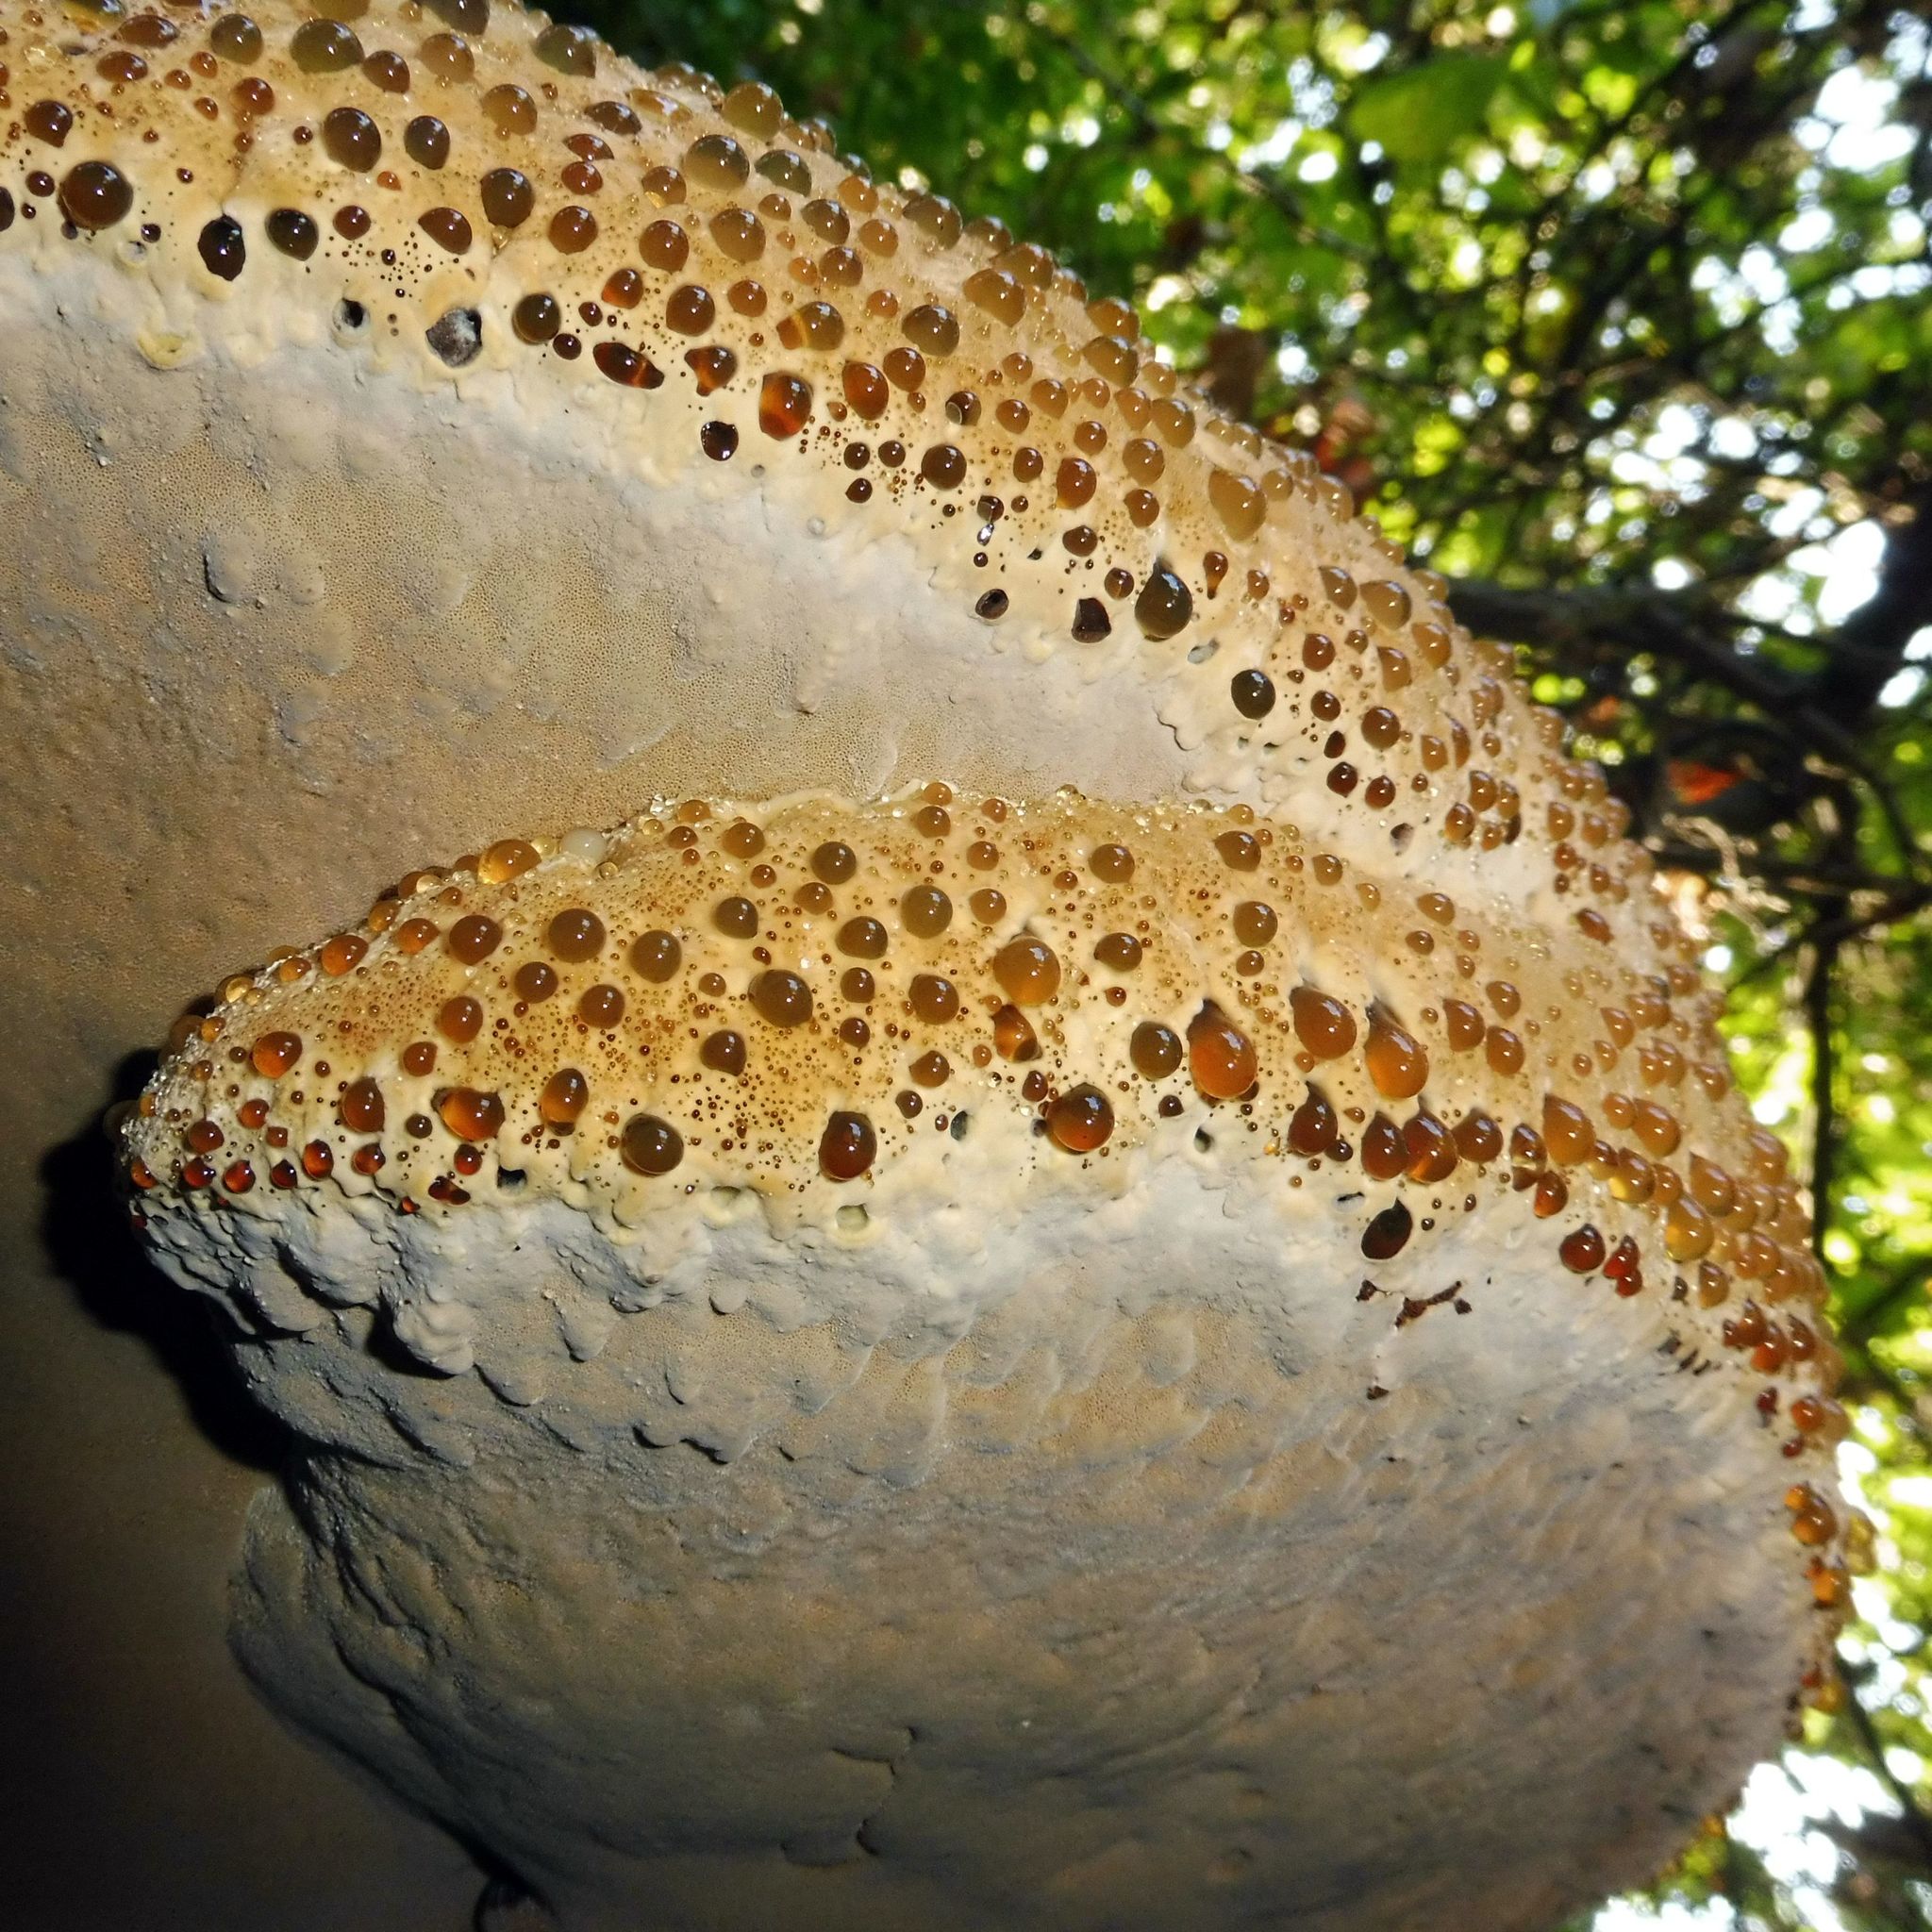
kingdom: Fungi
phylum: Basidiomycota
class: Agaricomycetes
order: Hymenochaetales
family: Hymenochaetaceae
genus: Pseudoinonotus
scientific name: Pseudoinonotus dryadeus
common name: Oak bracket
